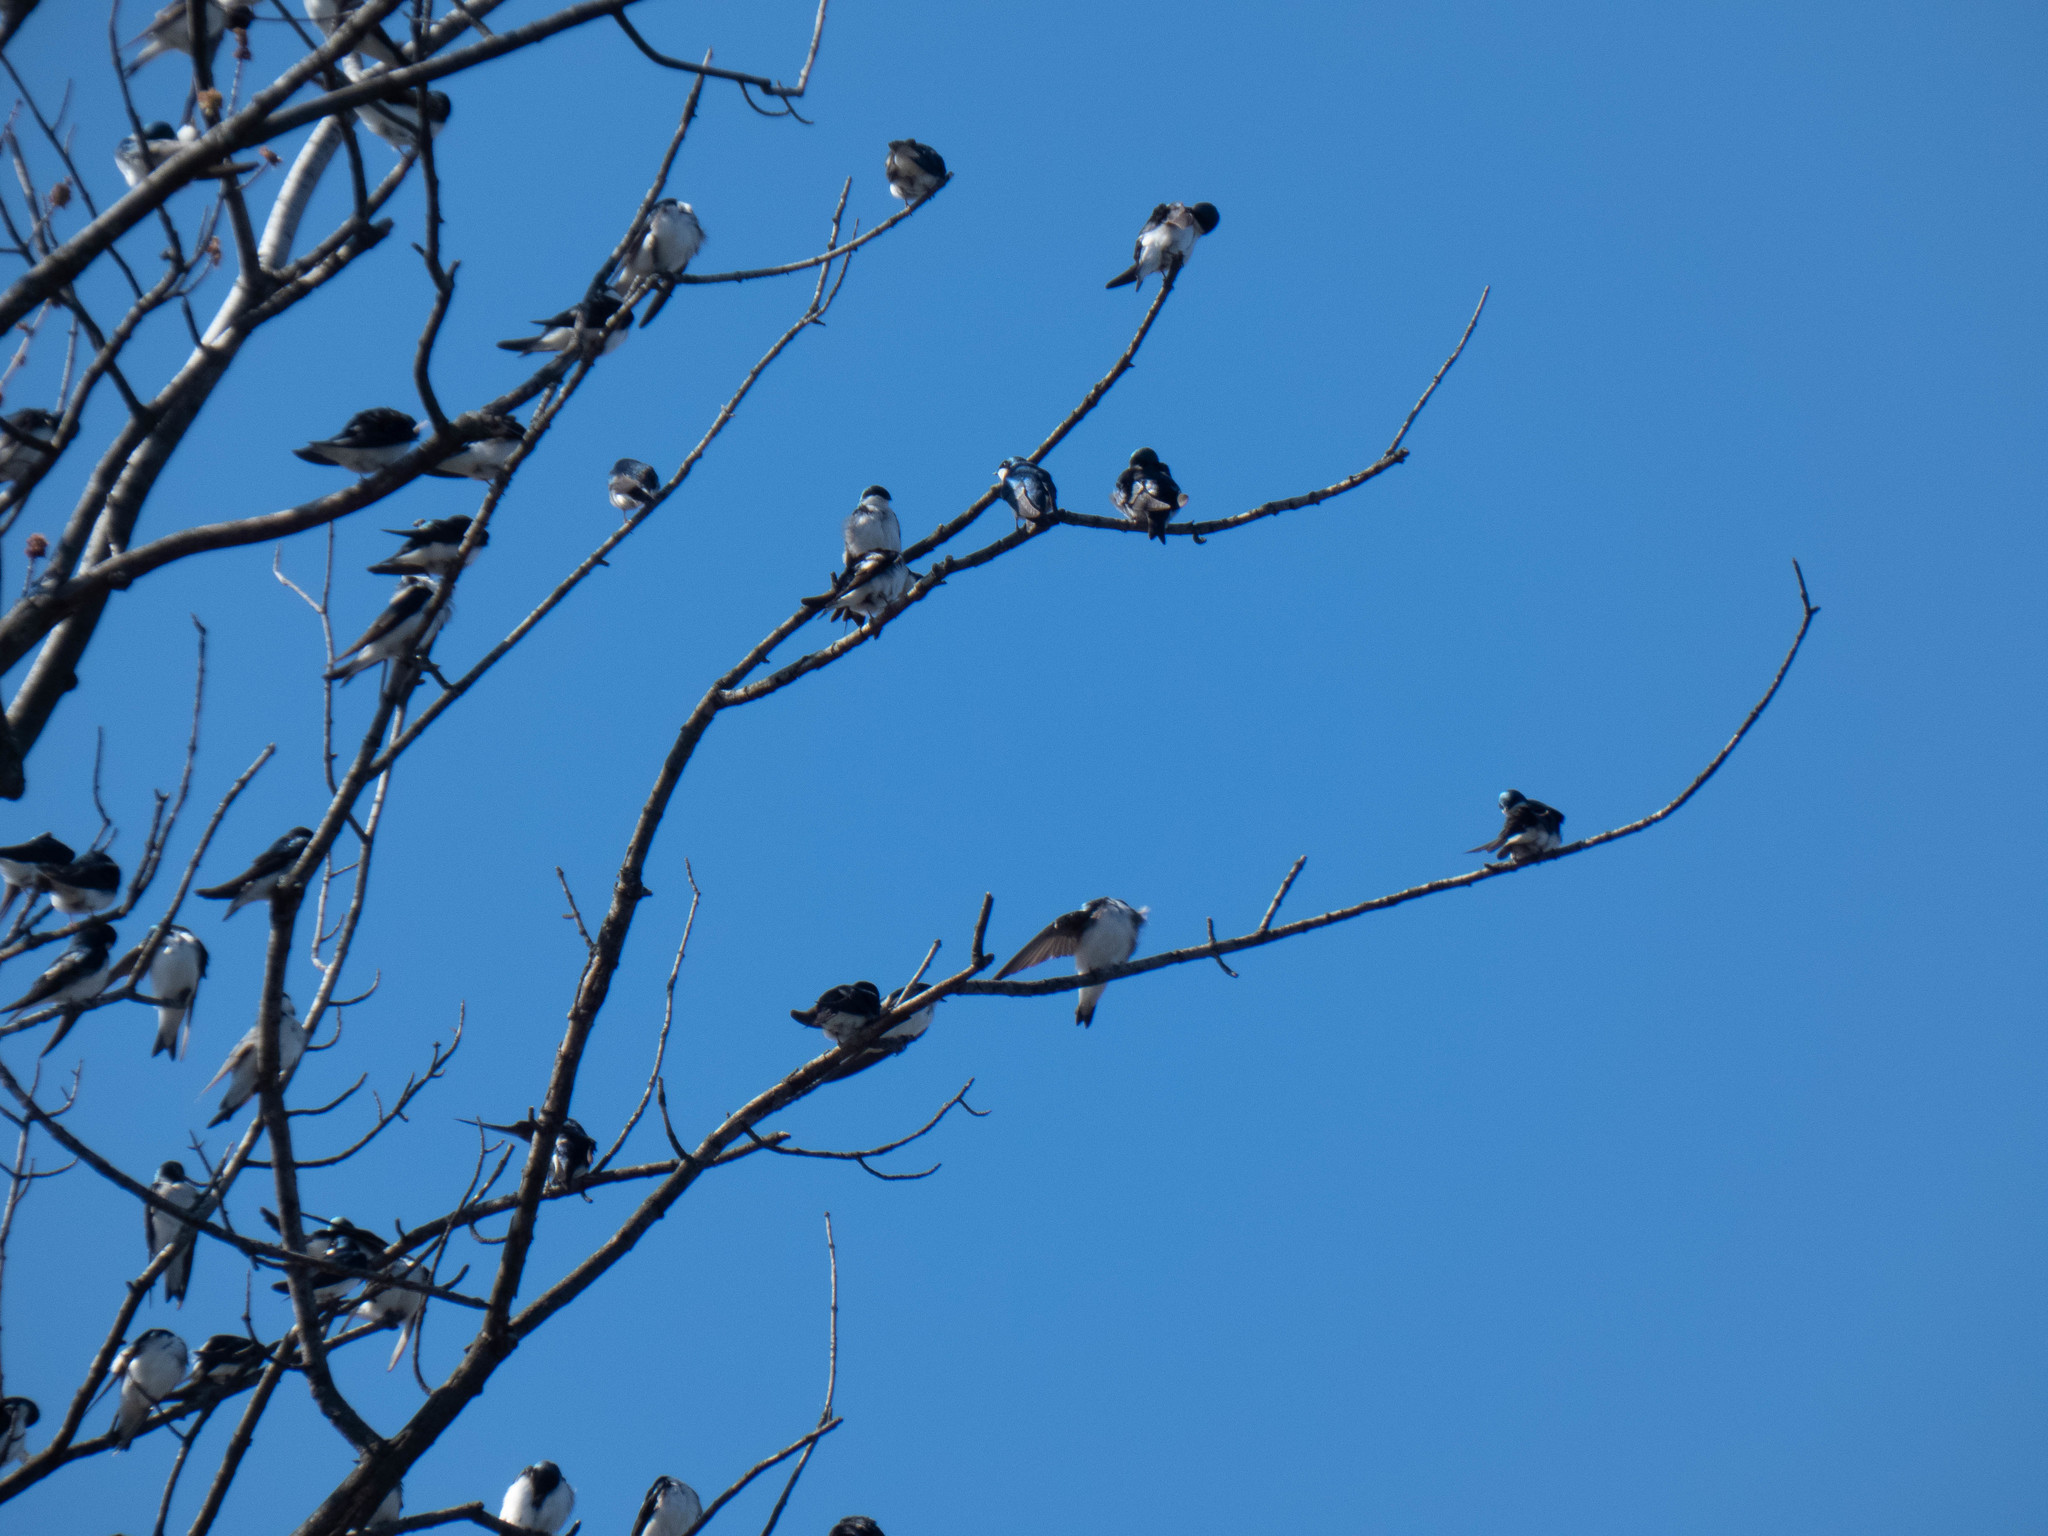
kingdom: Animalia
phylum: Chordata
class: Aves
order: Passeriformes
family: Hirundinidae
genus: Tachycineta
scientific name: Tachycineta bicolor
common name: Tree swallow
